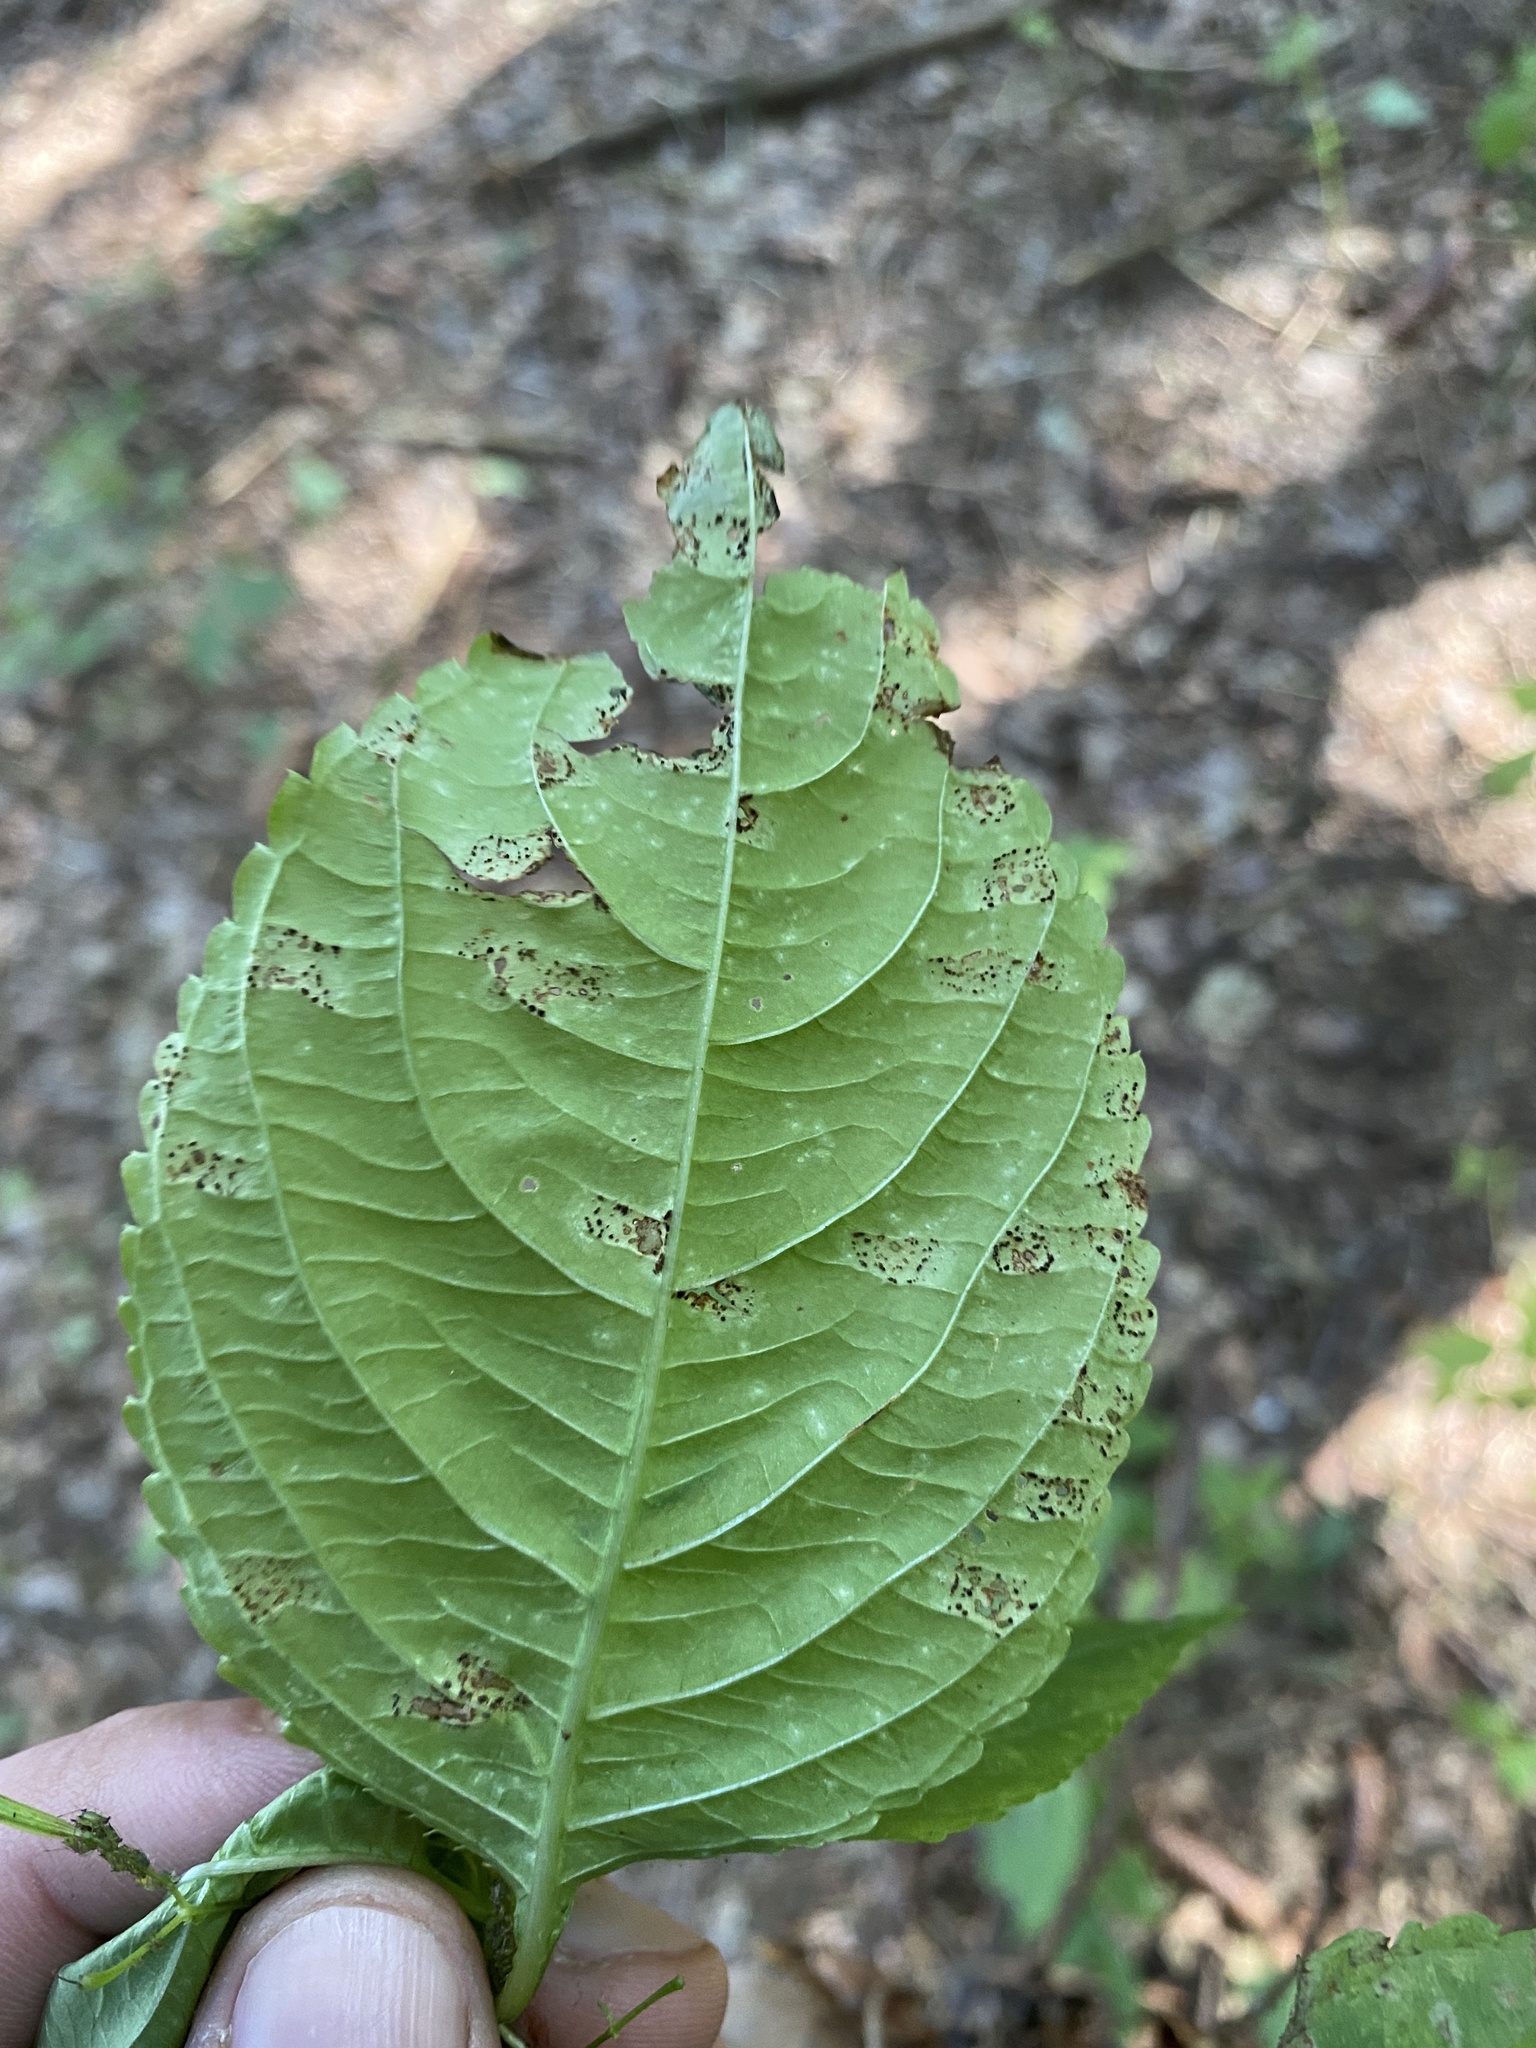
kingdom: Fungi
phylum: Basidiomycota
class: Pucciniomycetes
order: Pucciniales
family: Pucciniaceae
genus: Puccinia
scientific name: Puccinia komarovii
